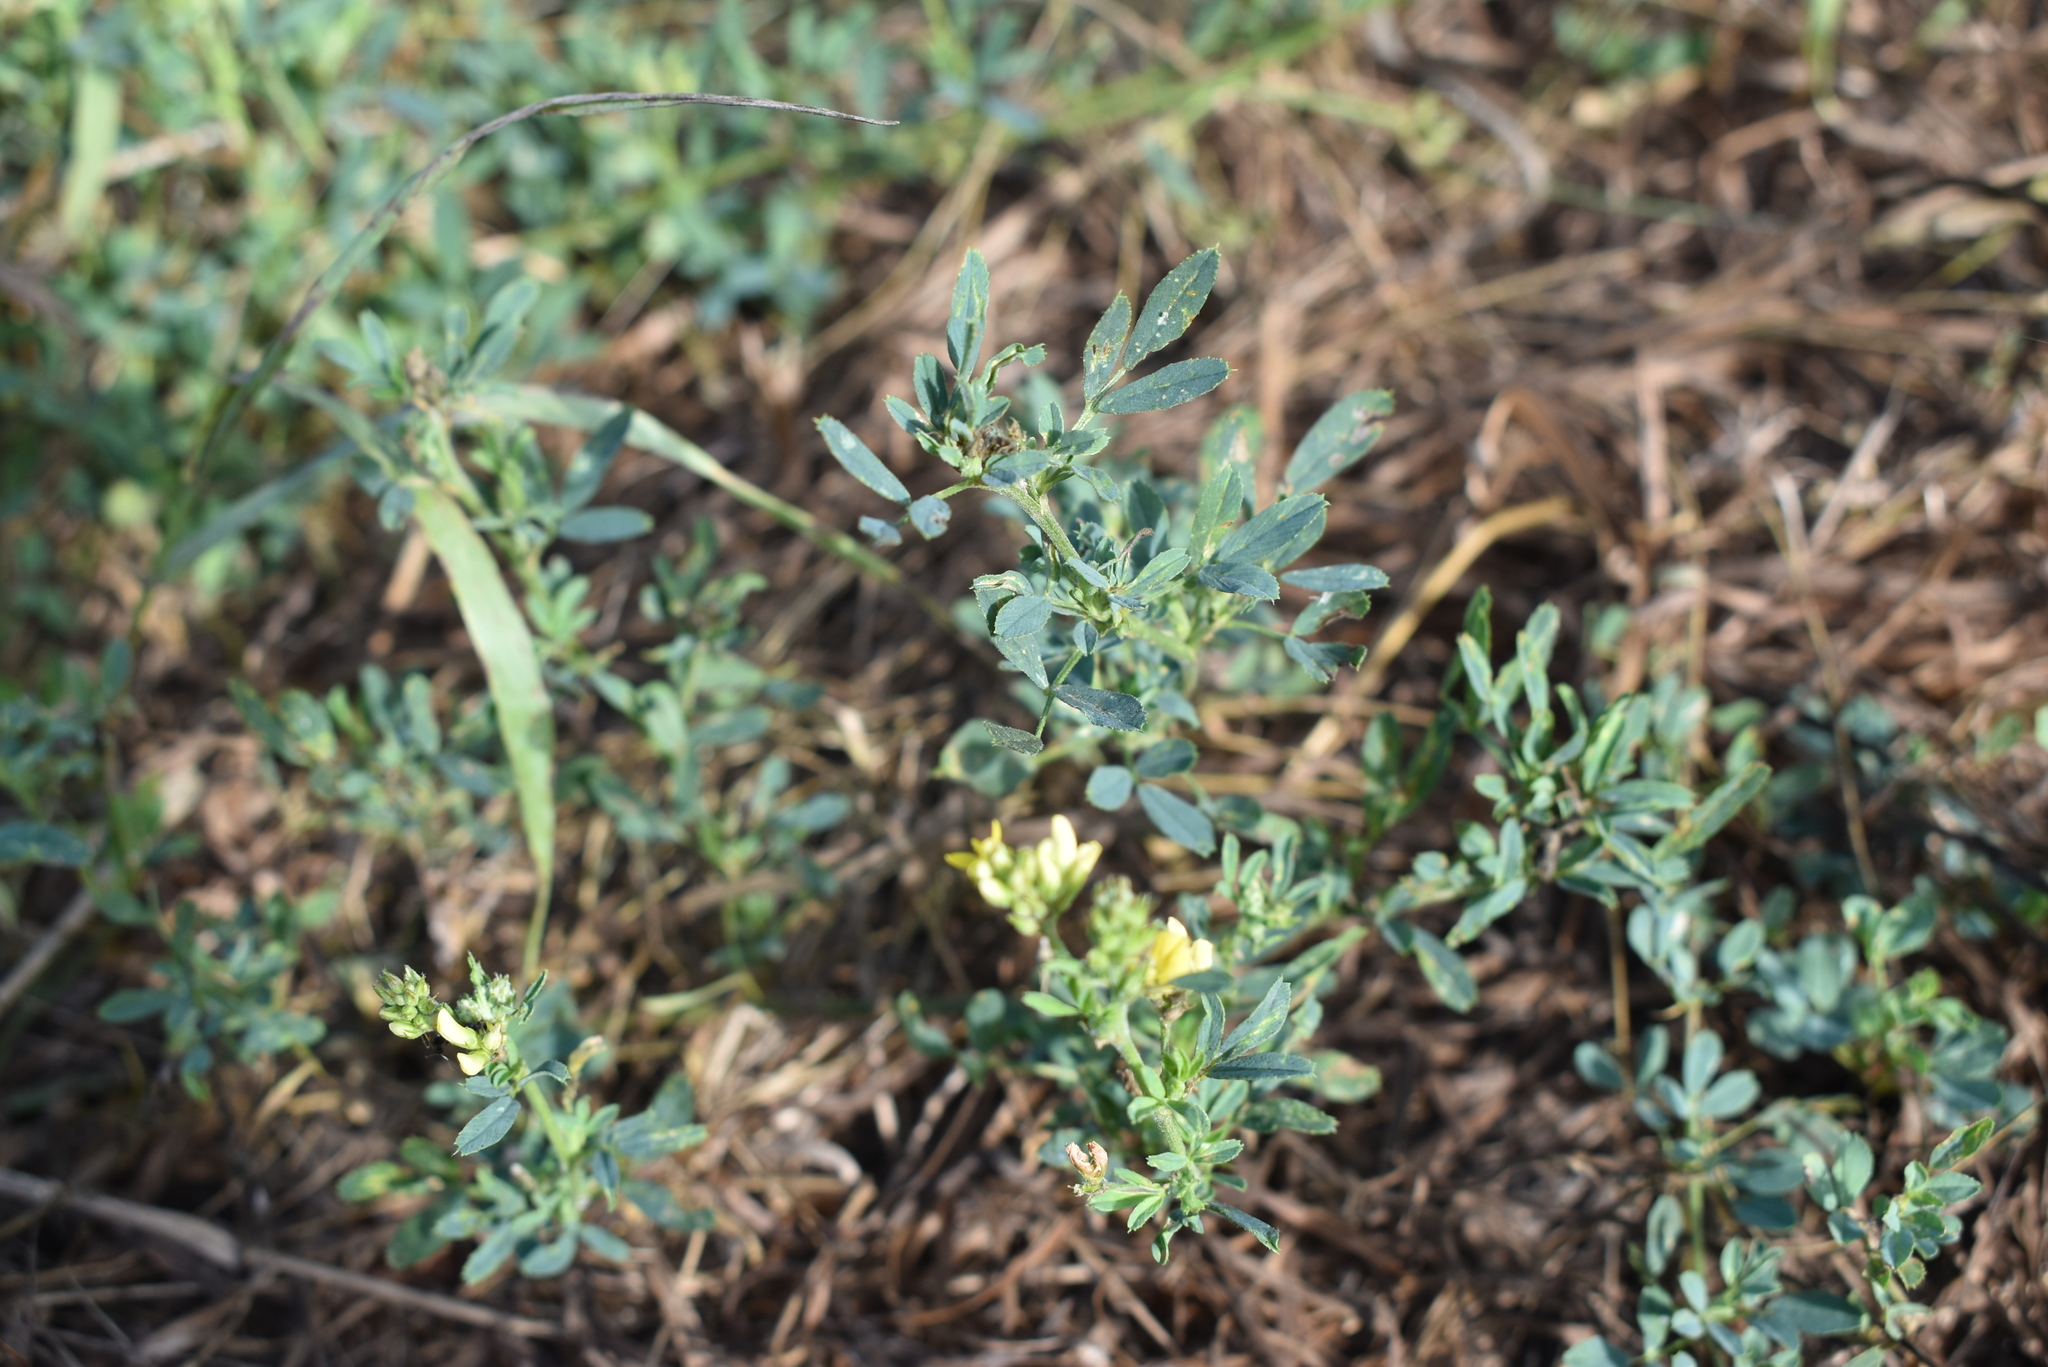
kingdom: Plantae
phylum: Tracheophyta
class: Magnoliopsida
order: Fabales
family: Fabaceae
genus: Medicago
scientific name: Medicago varia
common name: Sand lucerne
